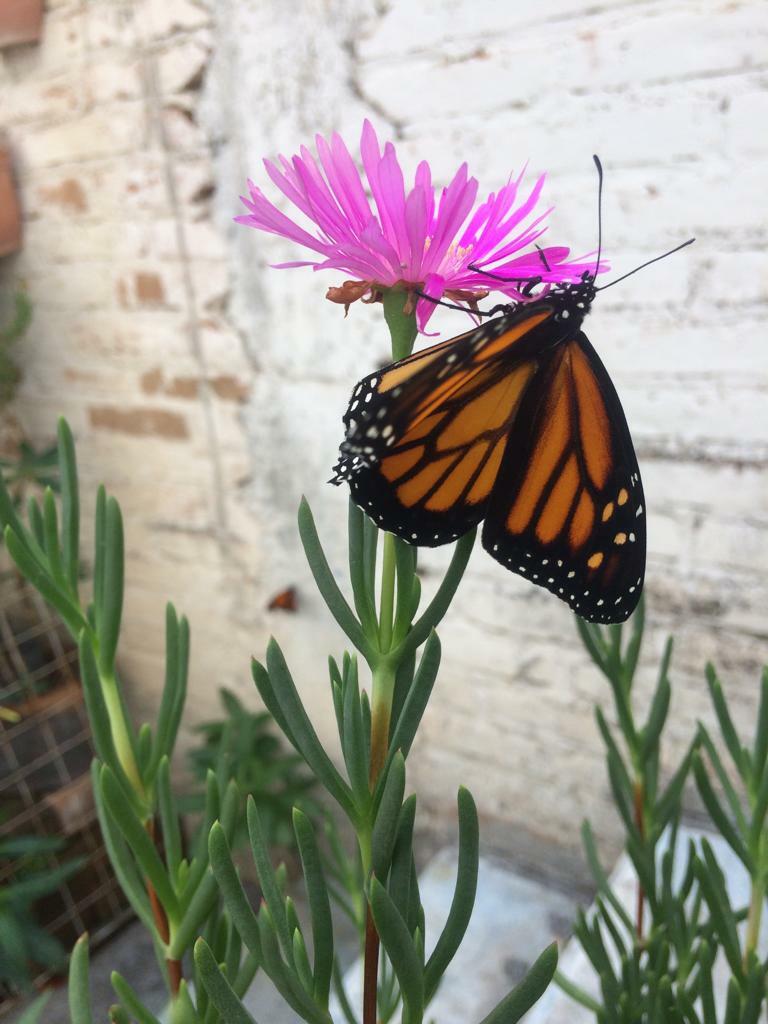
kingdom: Animalia
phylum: Arthropoda
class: Insecta
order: Lepidoptera
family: Nymphalidae
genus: Danaus
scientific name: Danaus plexippus
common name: Monarch
